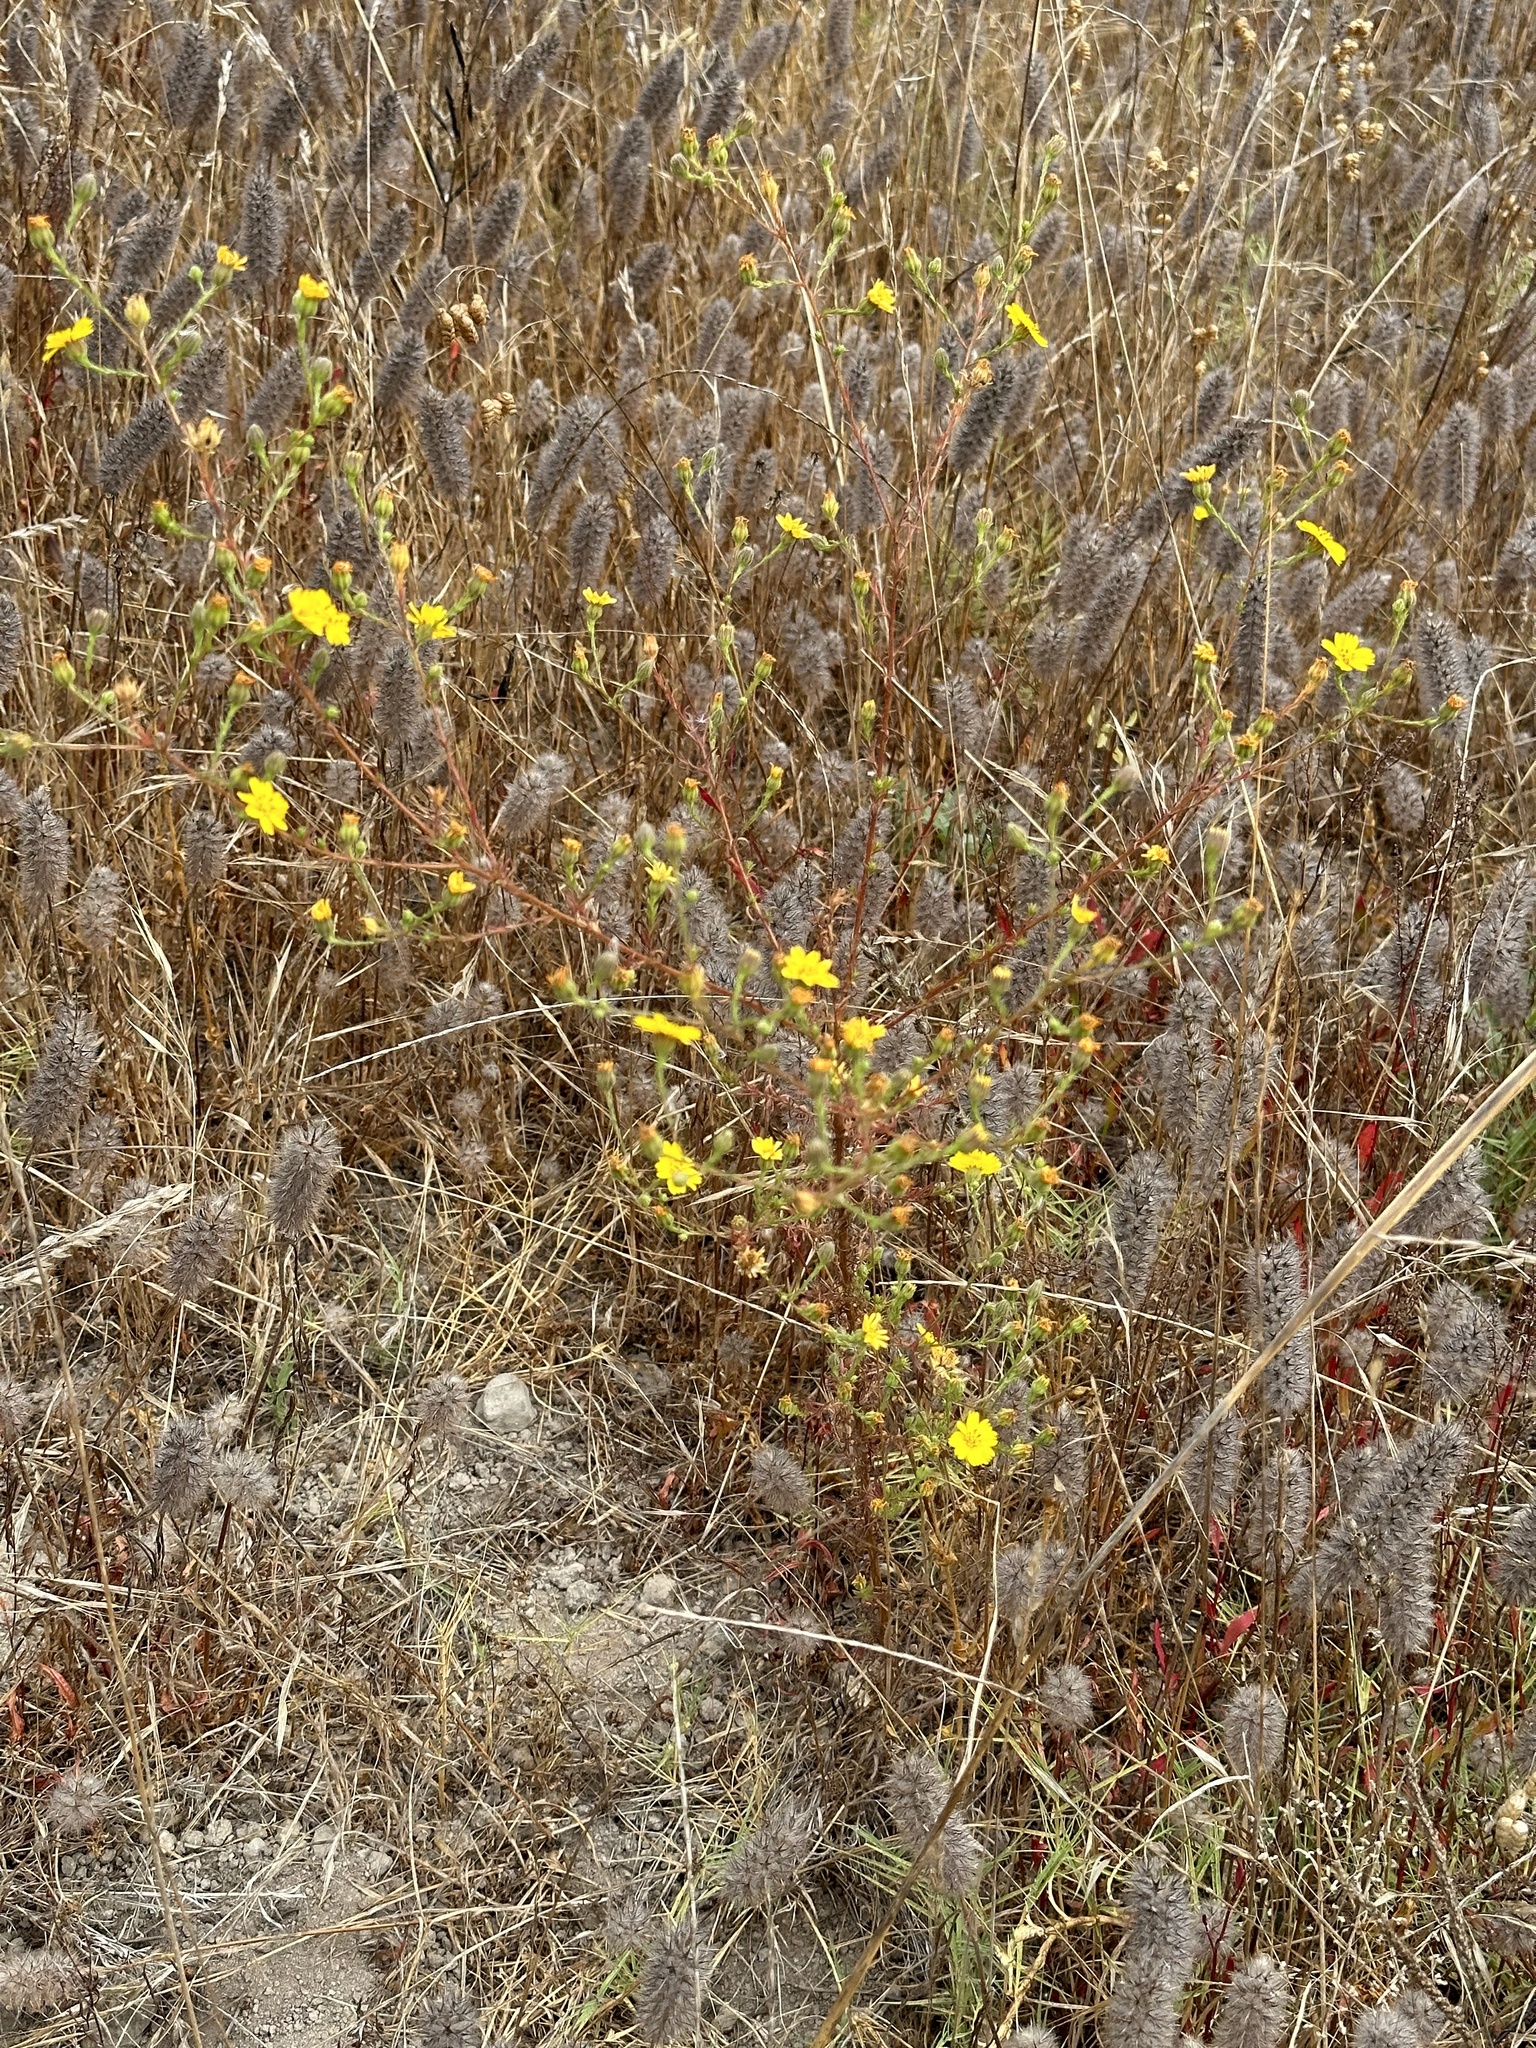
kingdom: Plantae
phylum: Tracheophyta
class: Magnoliopsida
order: Asterales
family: Asteraceae
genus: Deinandra
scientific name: Deinandra paniculata
